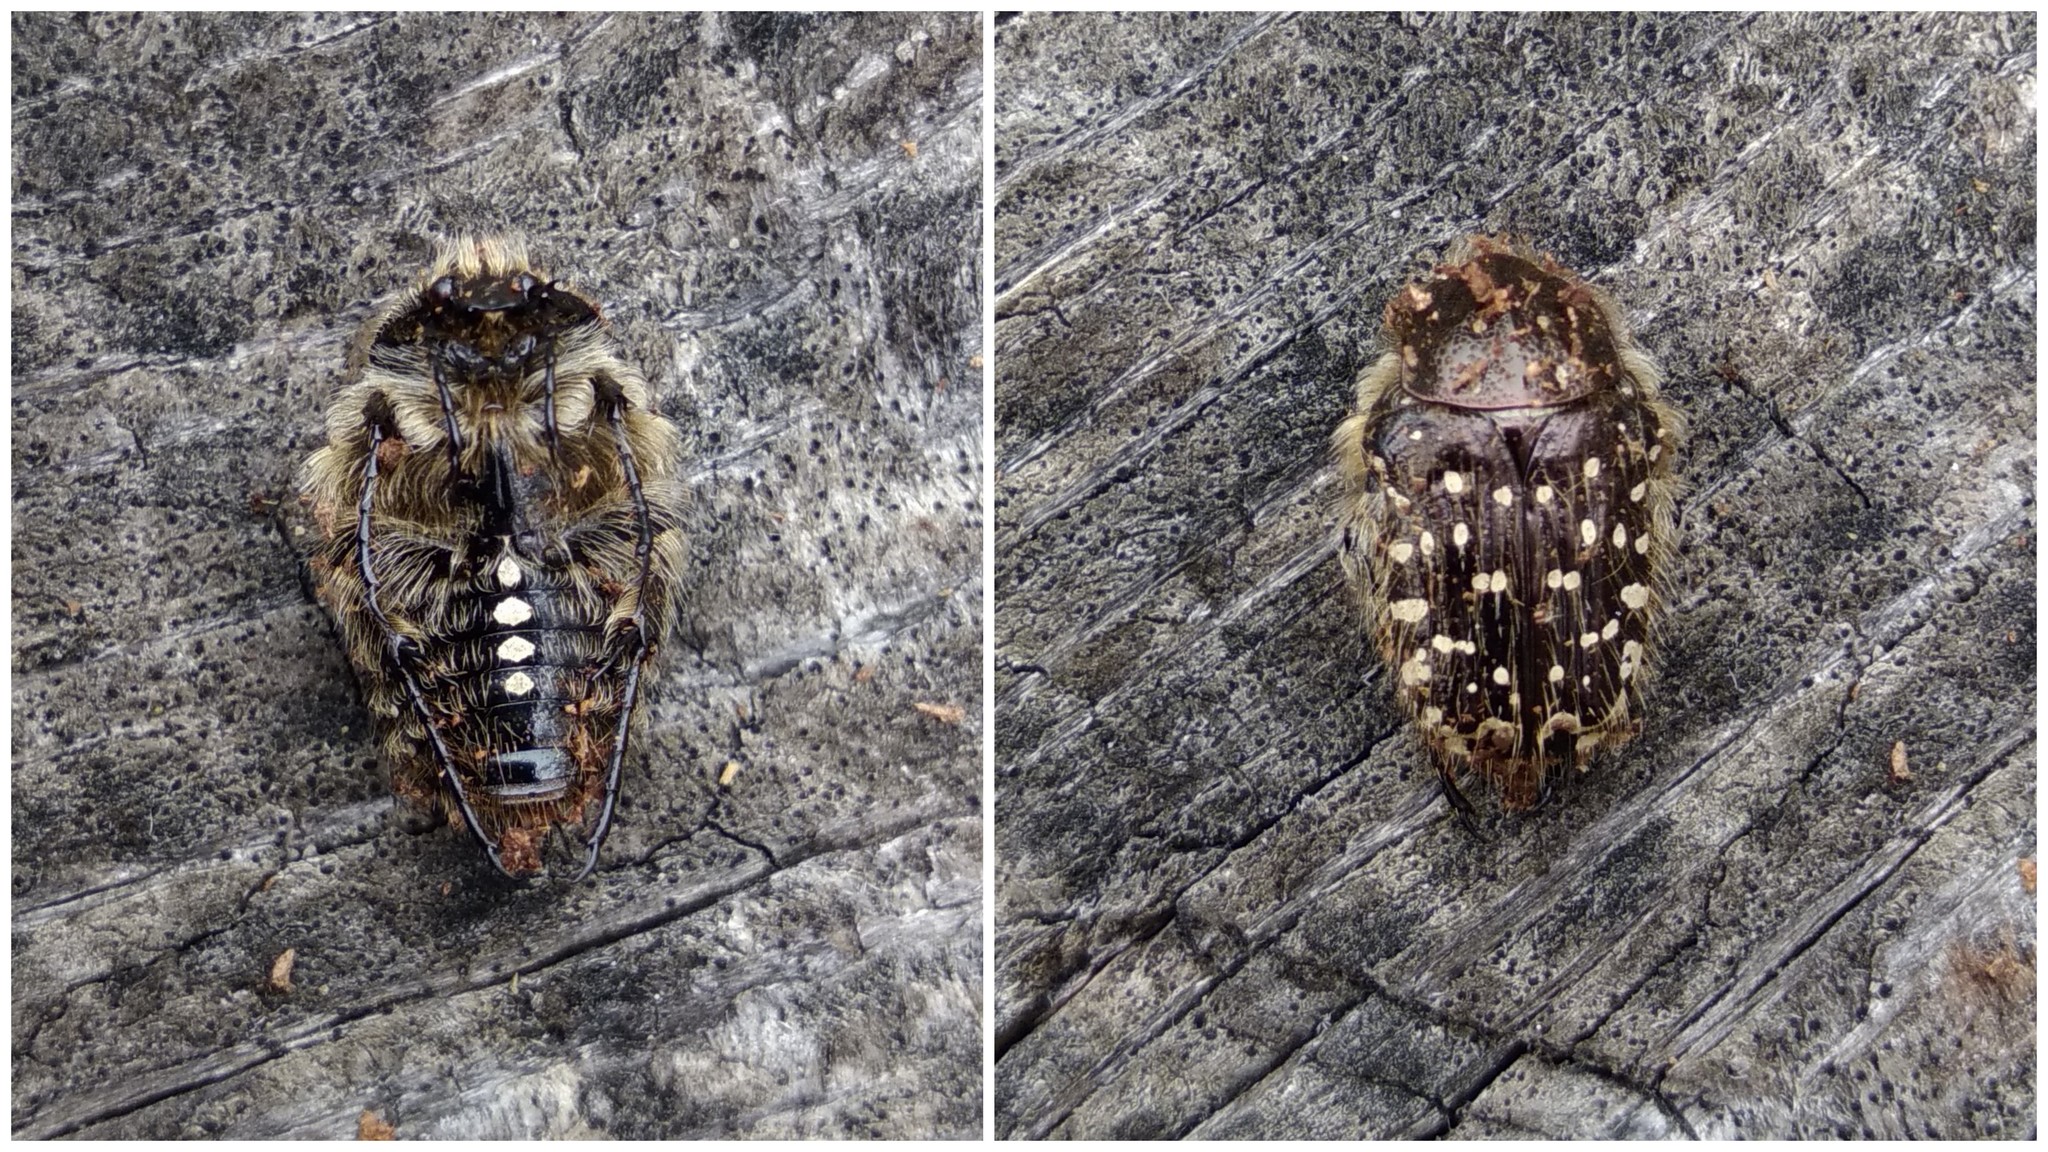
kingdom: Animalia
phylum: Arthropoda
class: Insecta
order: Coleoptera
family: Scarabaeidae
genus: Oxythyrea
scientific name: Oxythyrea funesta
